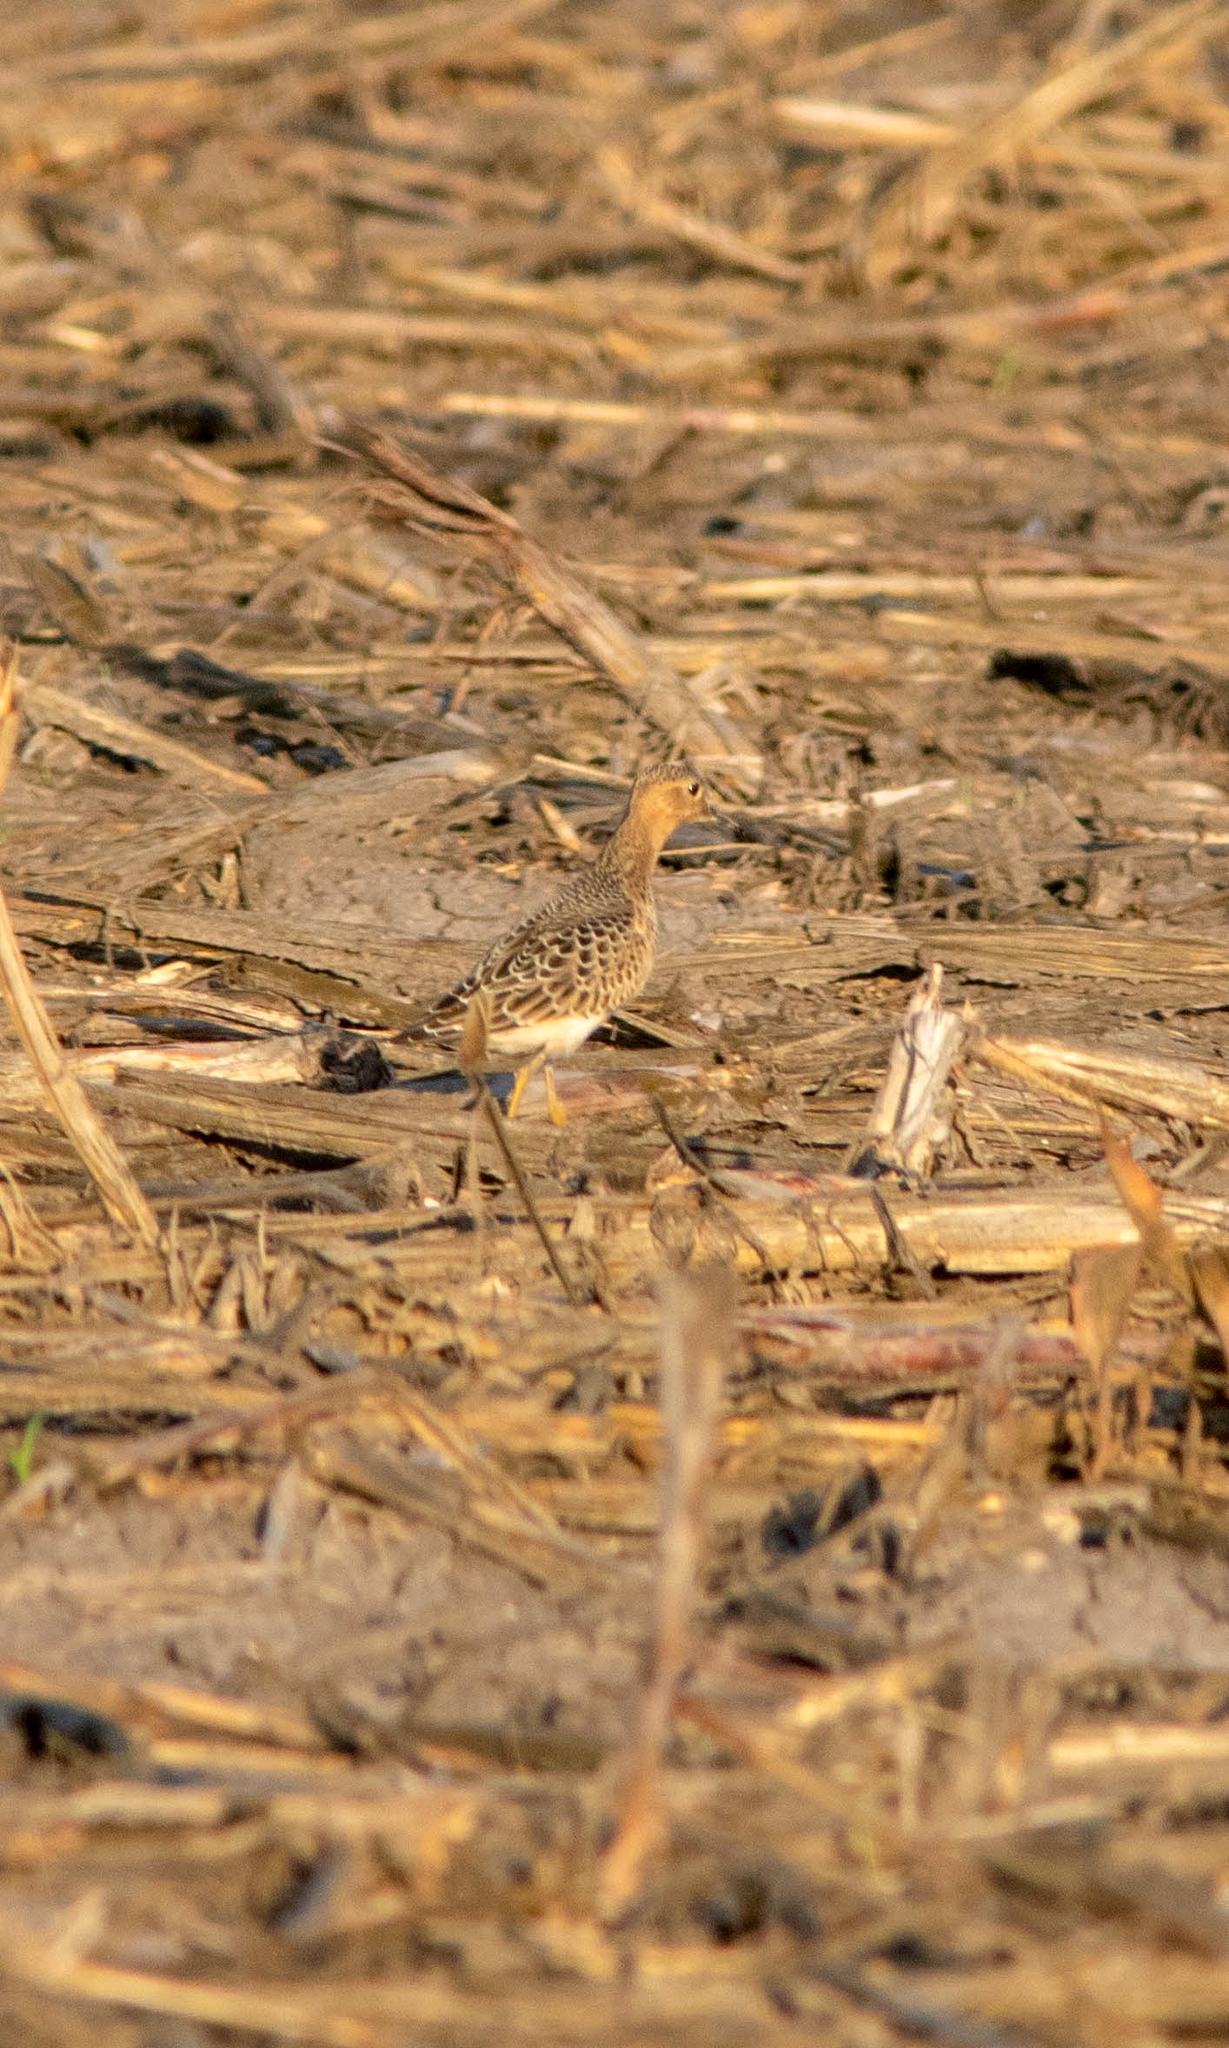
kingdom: Animalia
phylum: Chordata
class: Aves
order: Charadriiformes
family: Scolopacidae
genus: Calidris
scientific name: Calidris subruficollis
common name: Buff-breasted sandpiper
